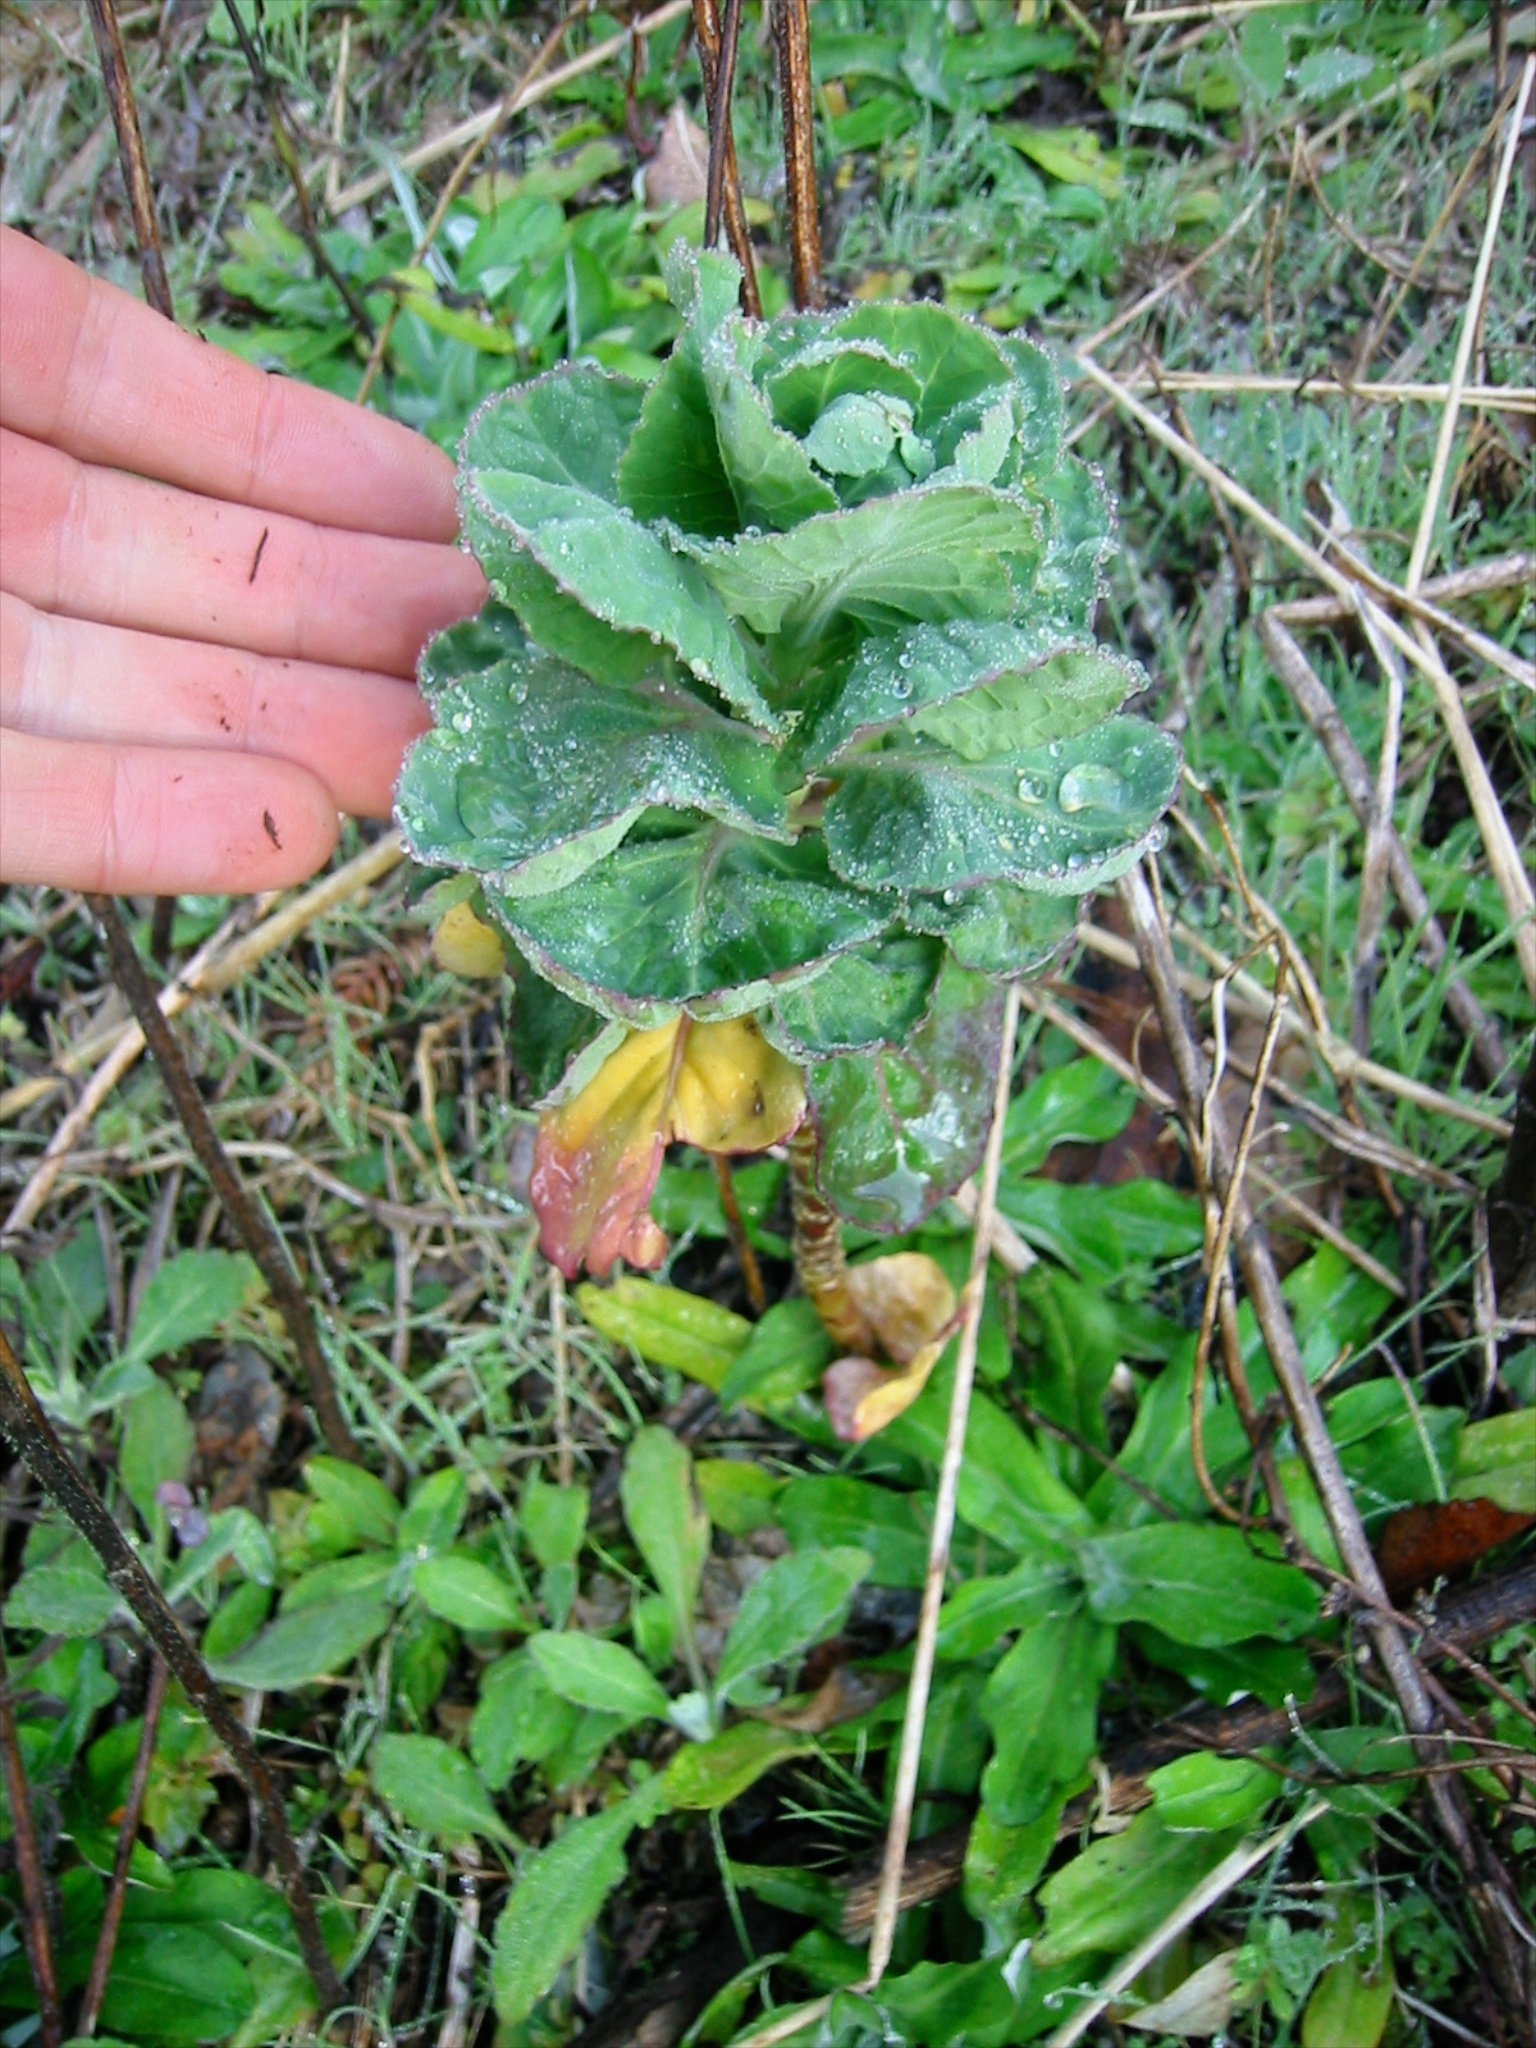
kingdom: Plantae
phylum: Tracheophyta
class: Magnoliopsida
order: Brassicales
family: Brassicaceae
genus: Brassica
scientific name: Brassica oleracea
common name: Cabbage
